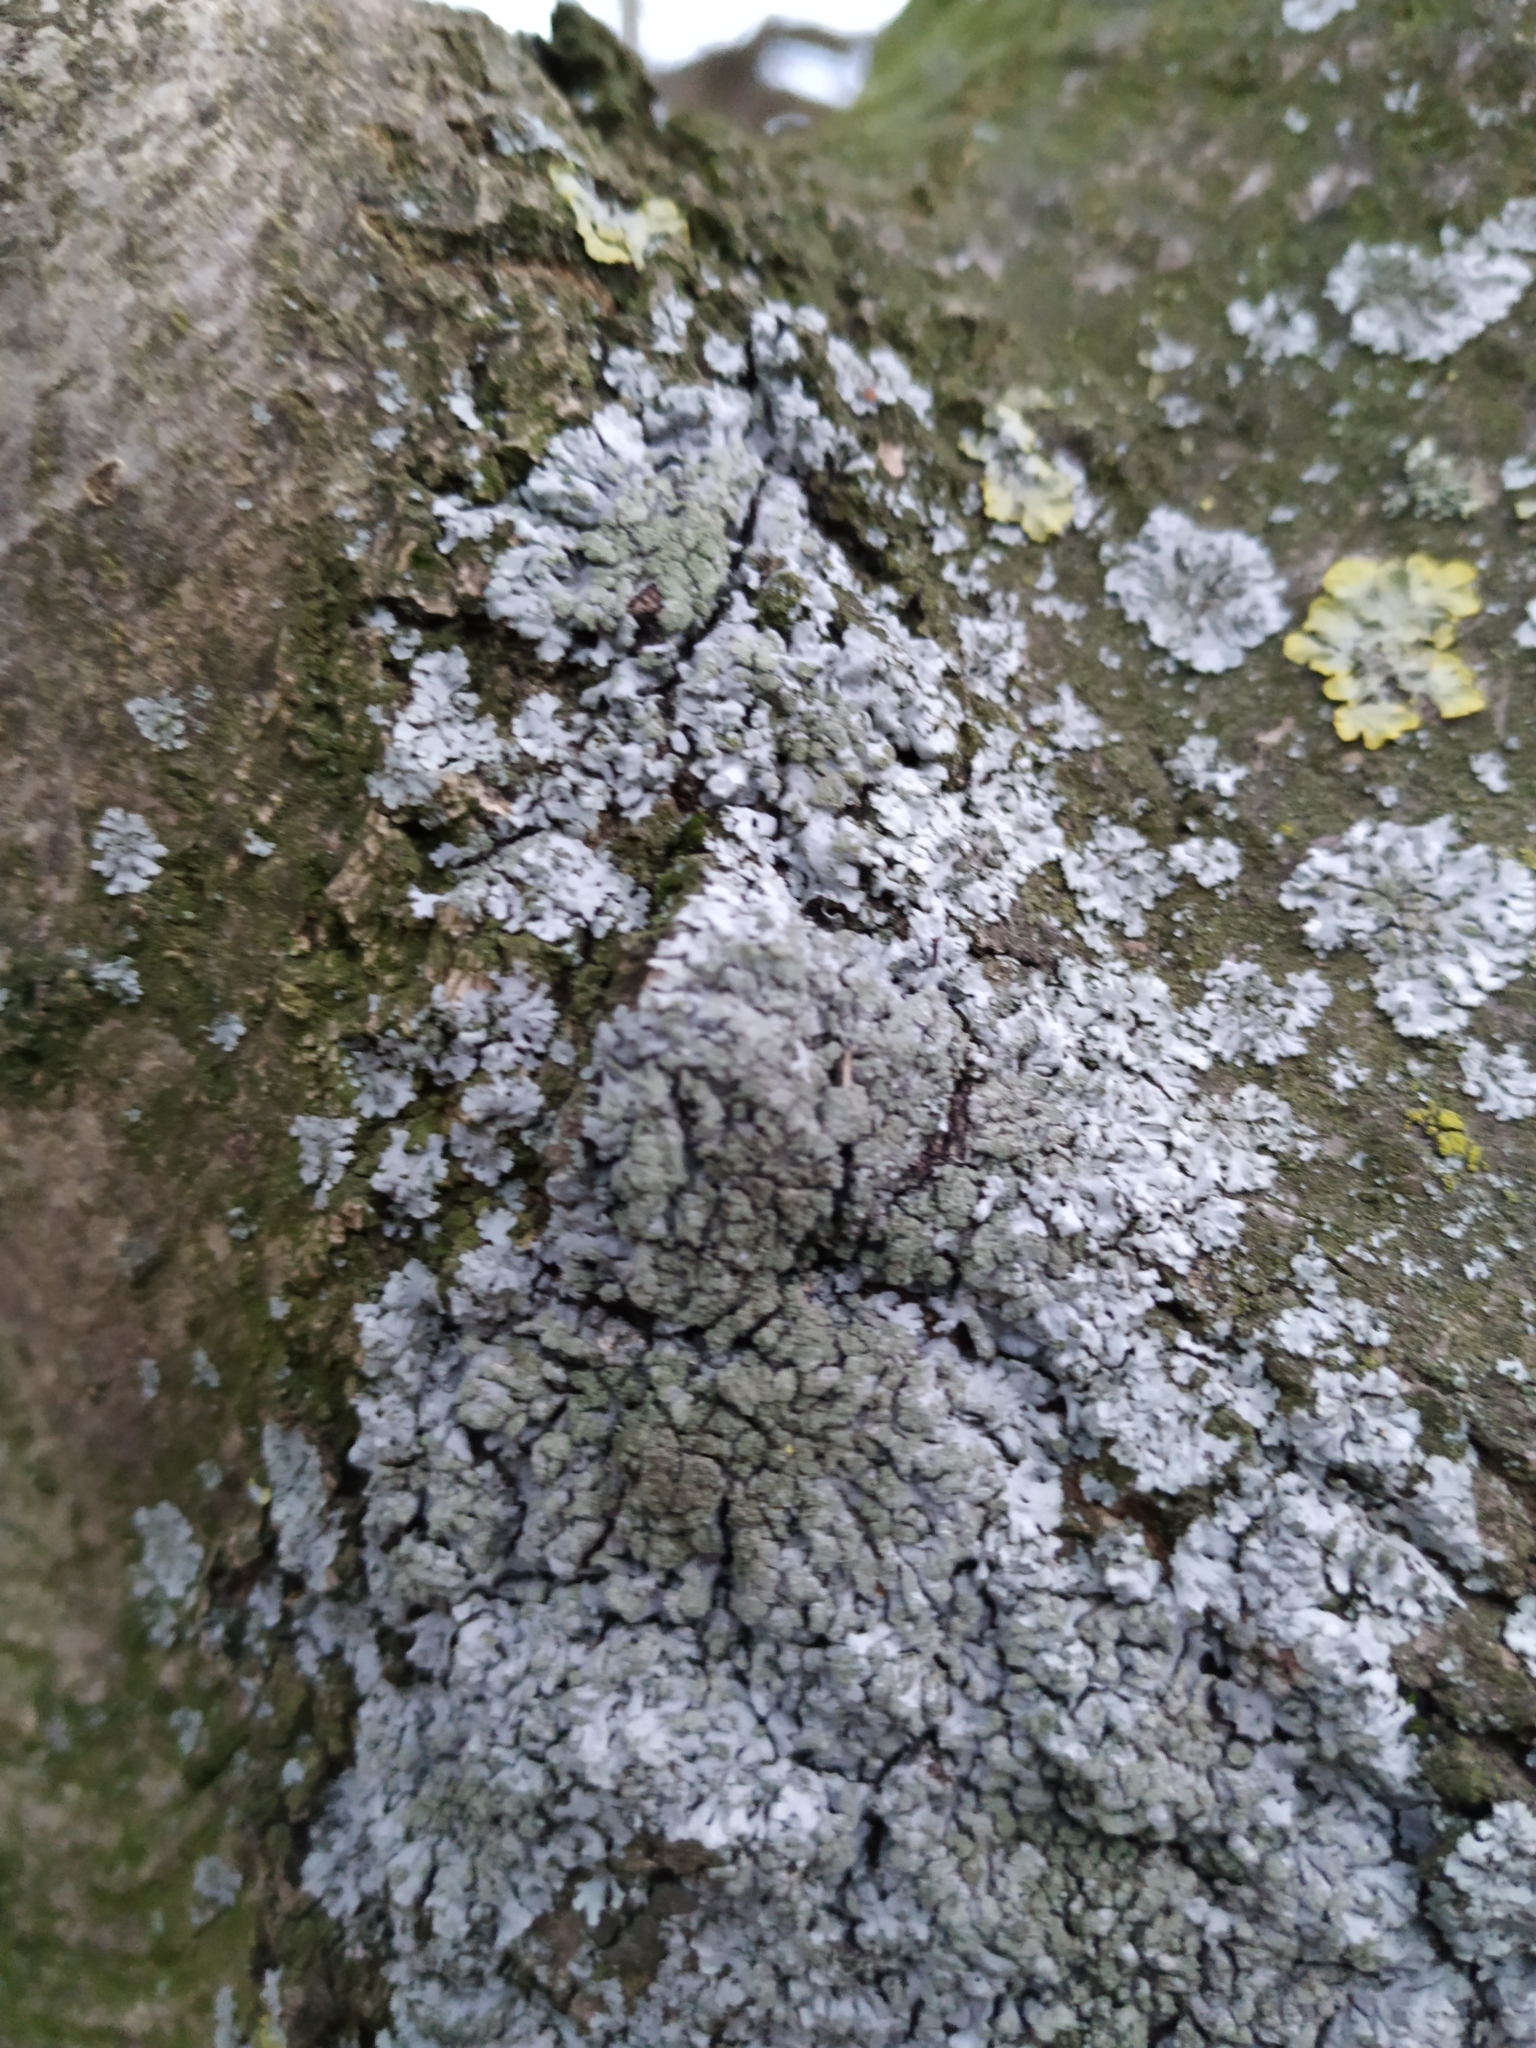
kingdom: Fungi
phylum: Ascomycota
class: Lecanoromycetes
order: Caliciales
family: Physciaceae
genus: Physcia
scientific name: Physcia dubia
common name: Powder-tipped rosette lichen
